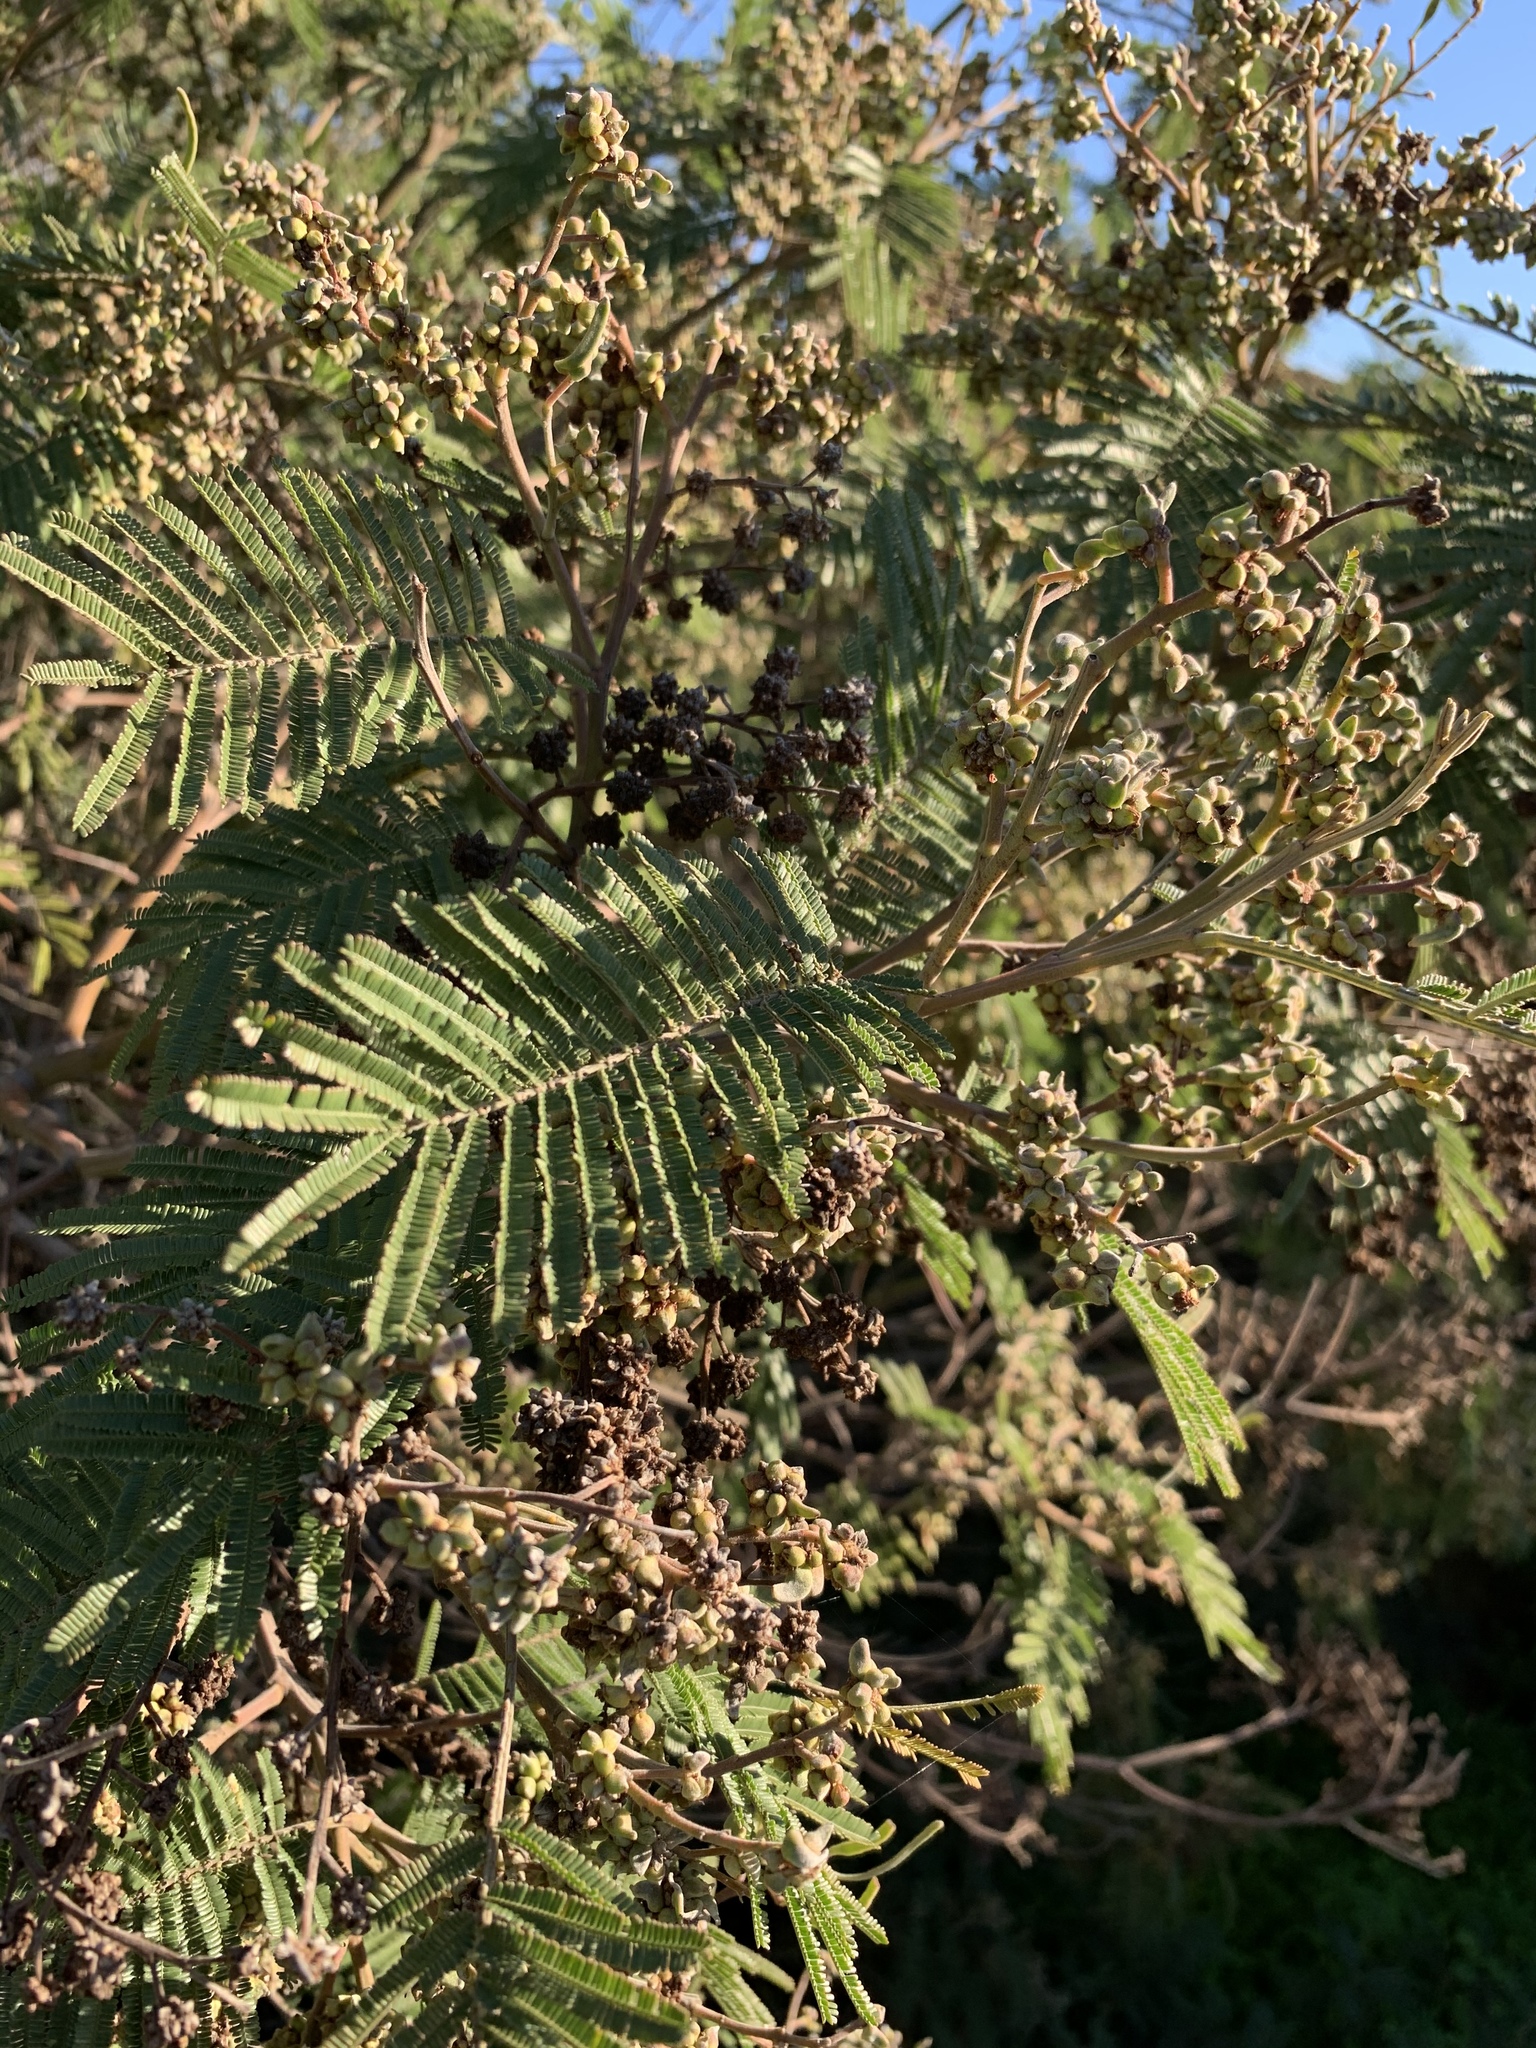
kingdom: Animalia
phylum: Arthropoda
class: Insecta
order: Diptera
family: Cecidomyiidae
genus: Dasineura
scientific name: Dasineura rubiformis
